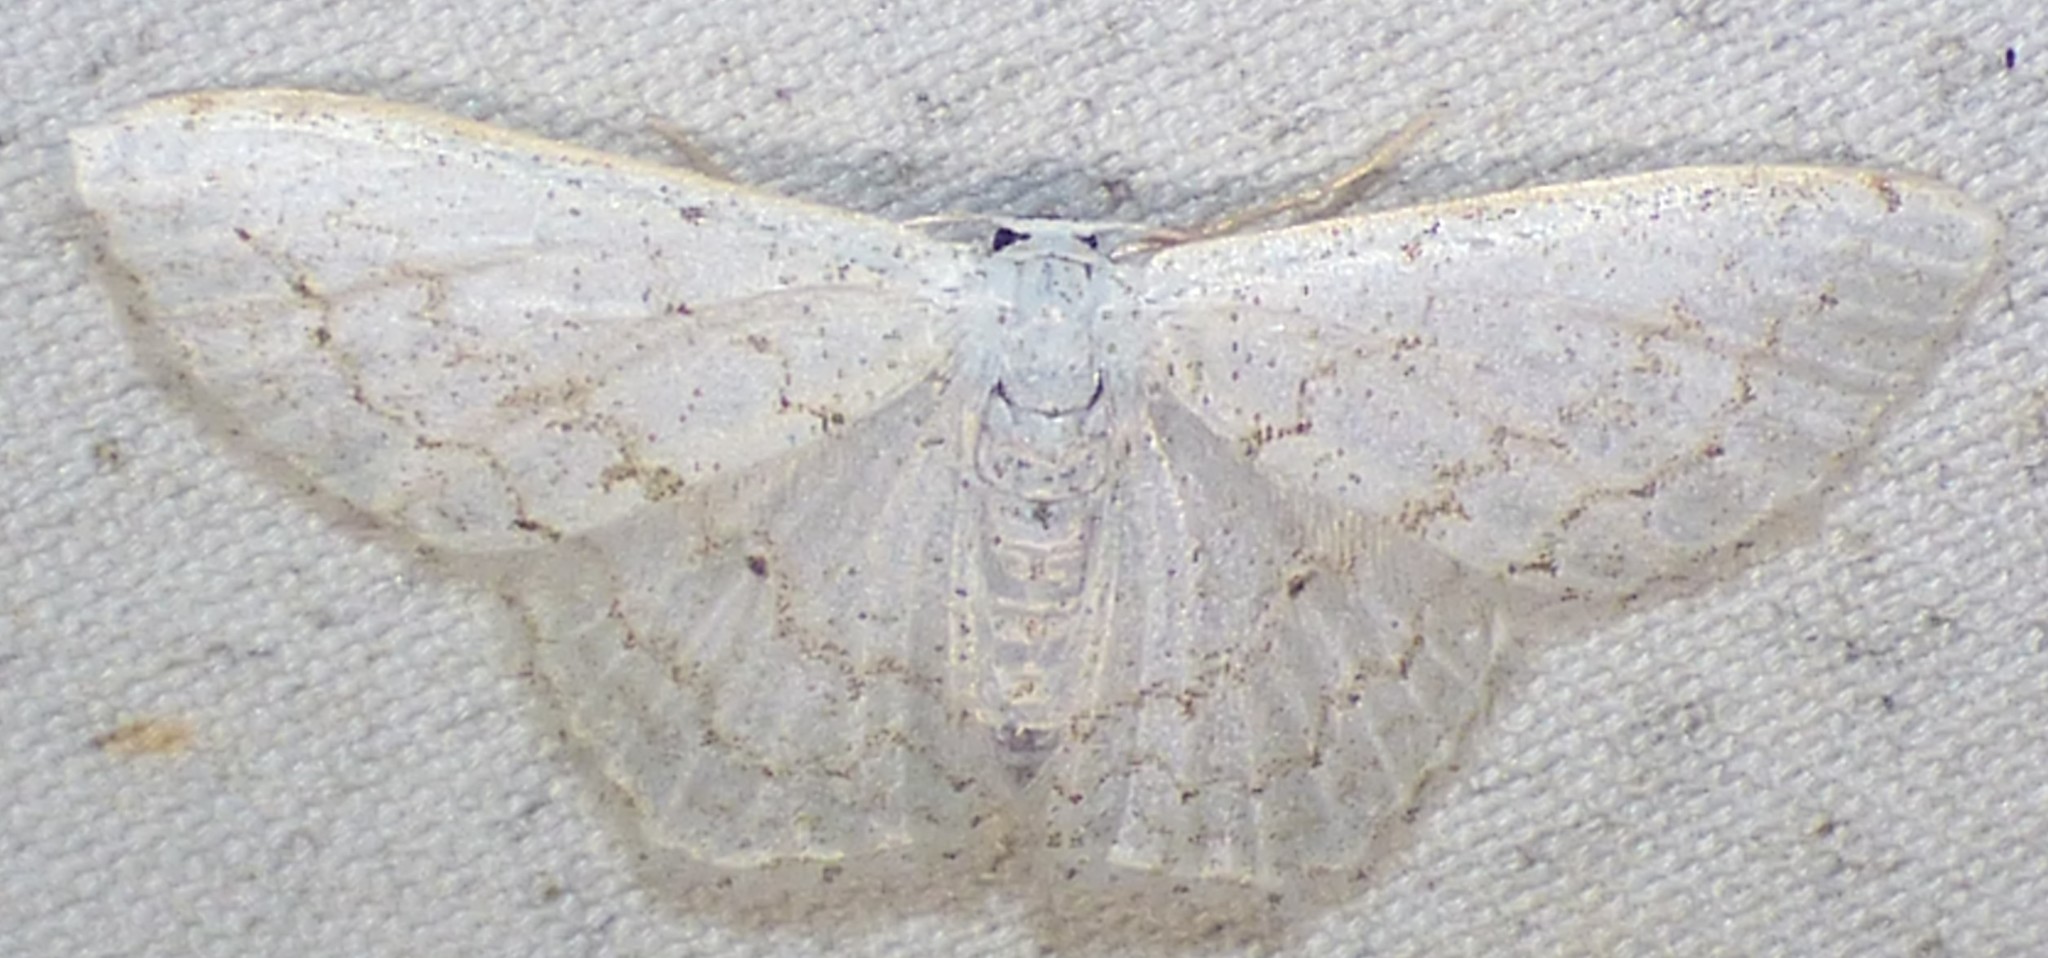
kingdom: Animalia
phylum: Arthropoda
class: Insecta
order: Lepidoptera
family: Geometridae
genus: Idaea
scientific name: Idaea tacturata
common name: Dot-lined wave
